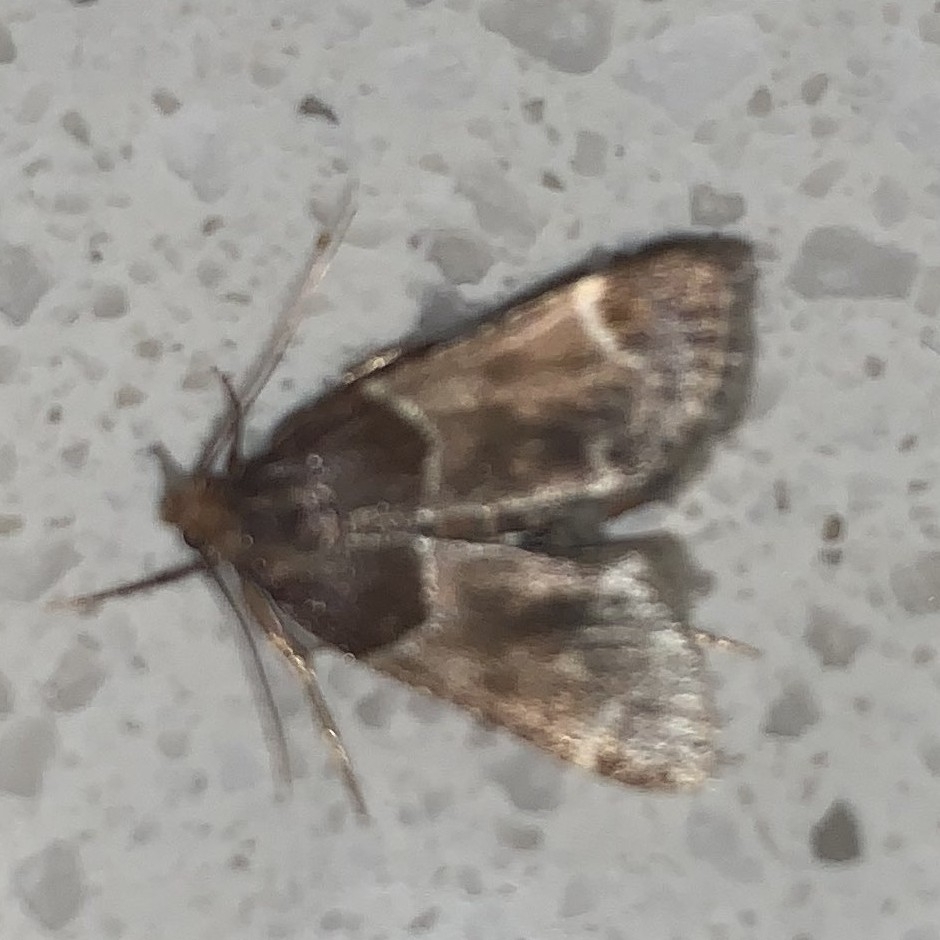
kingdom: Animalia
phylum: Arthropoda
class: Insecta
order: Lepidoptera
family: Pyralidae
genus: Pyralis
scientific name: Pyralis farinalis
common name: Meal moth
